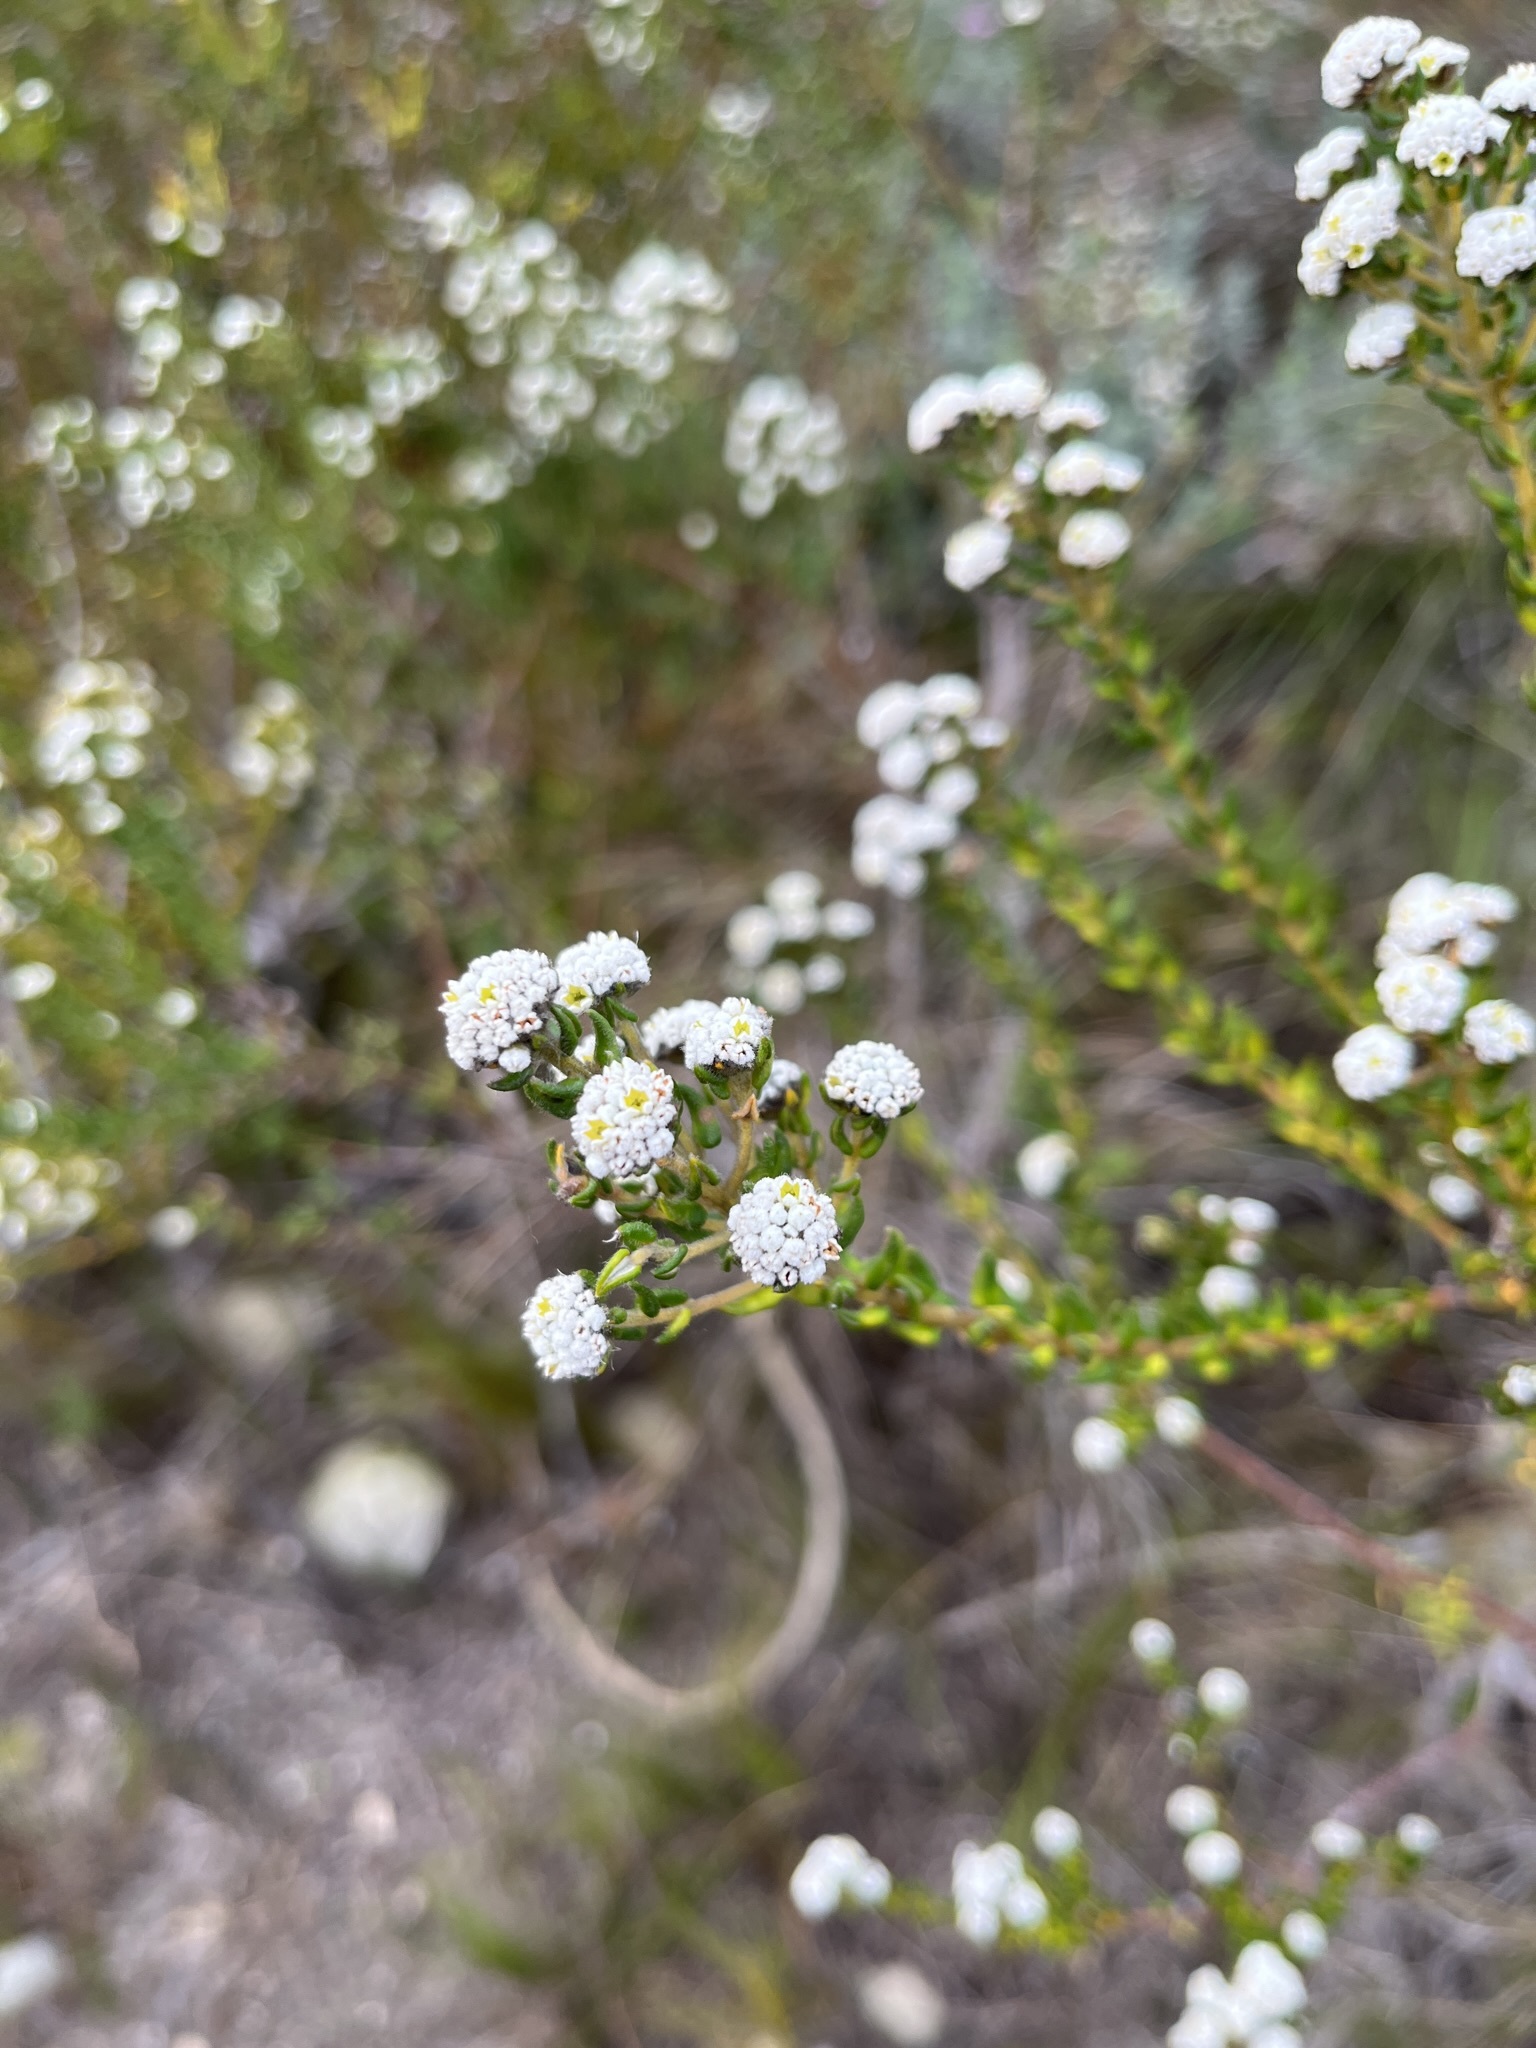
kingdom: Plantae
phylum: Tracheophyta
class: Magnoliopsida
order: Rosales
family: Rhamnaceae
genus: Phylica
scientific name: Phylica diffusa
